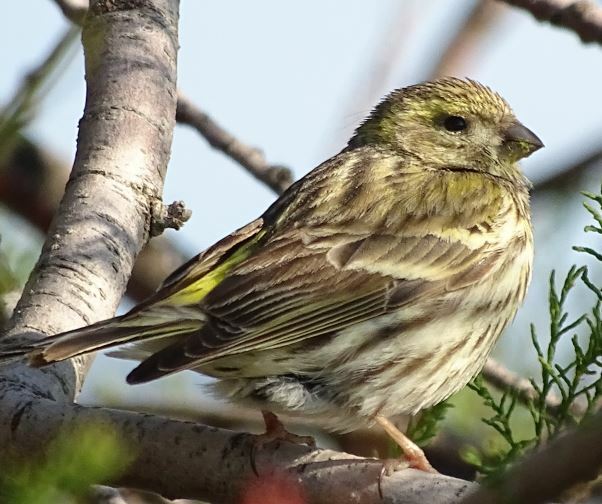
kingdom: Animalia
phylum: Chordata
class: Aves
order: Passeriformes
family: Fringillidae
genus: Serinus
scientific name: Serinus serinus
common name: European serin
